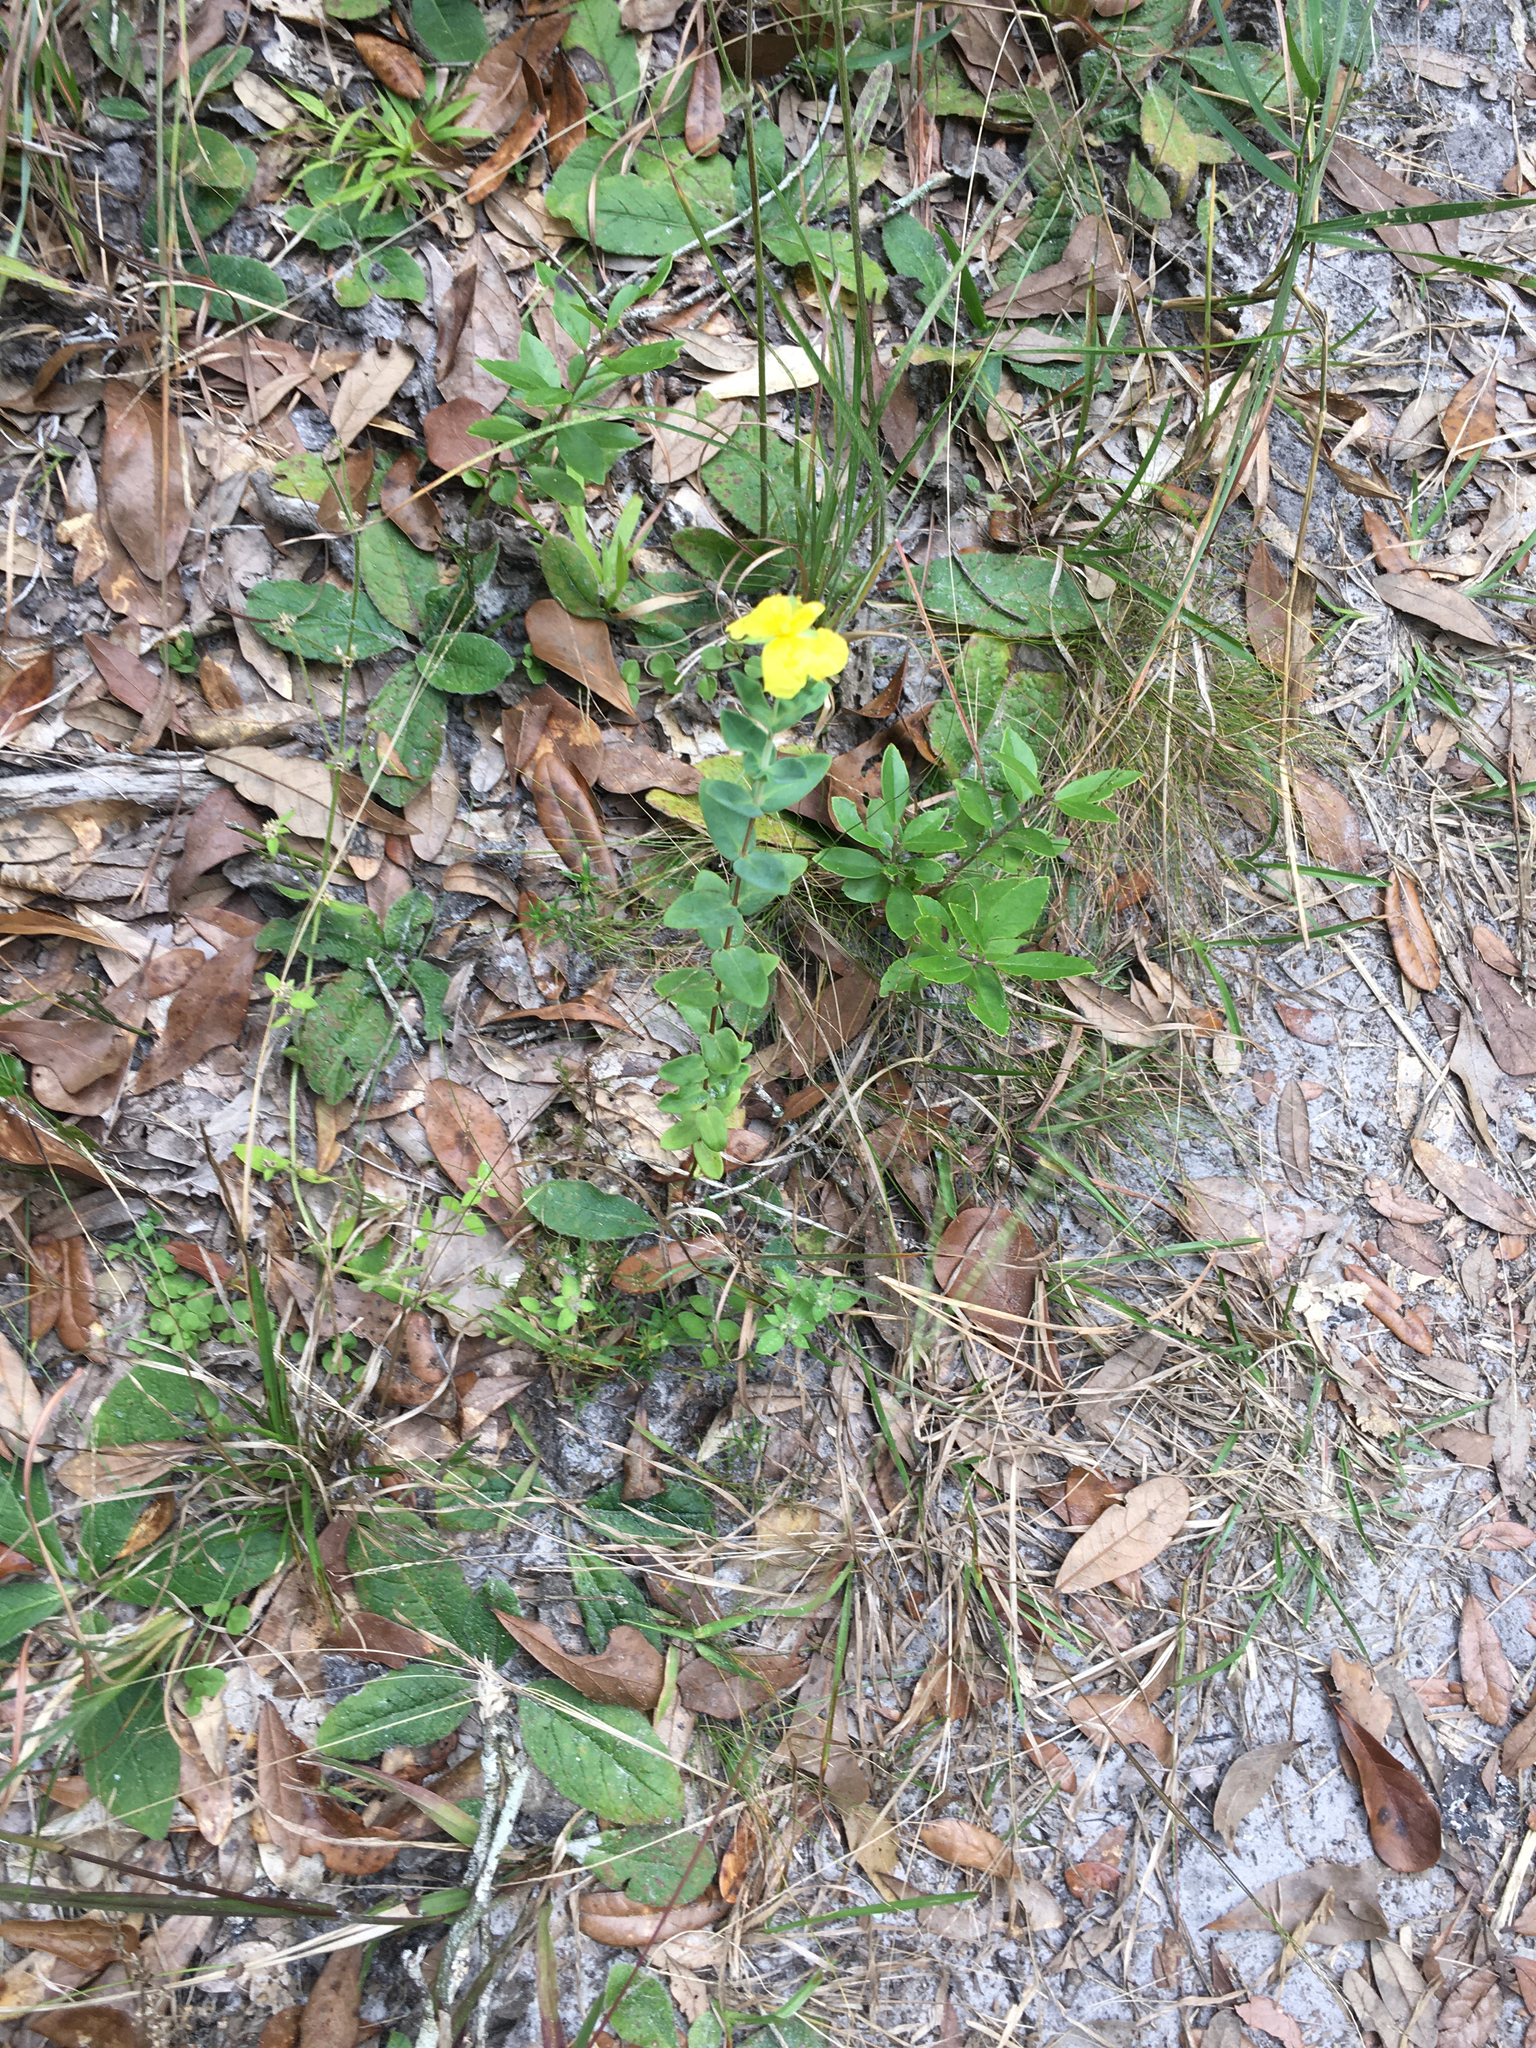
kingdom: Plantae
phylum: Tracheophyta
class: Magnoliopsida
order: Malpighiales
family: Hypericaceae
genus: Hypericum
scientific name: Hypericum tetrapetalum
